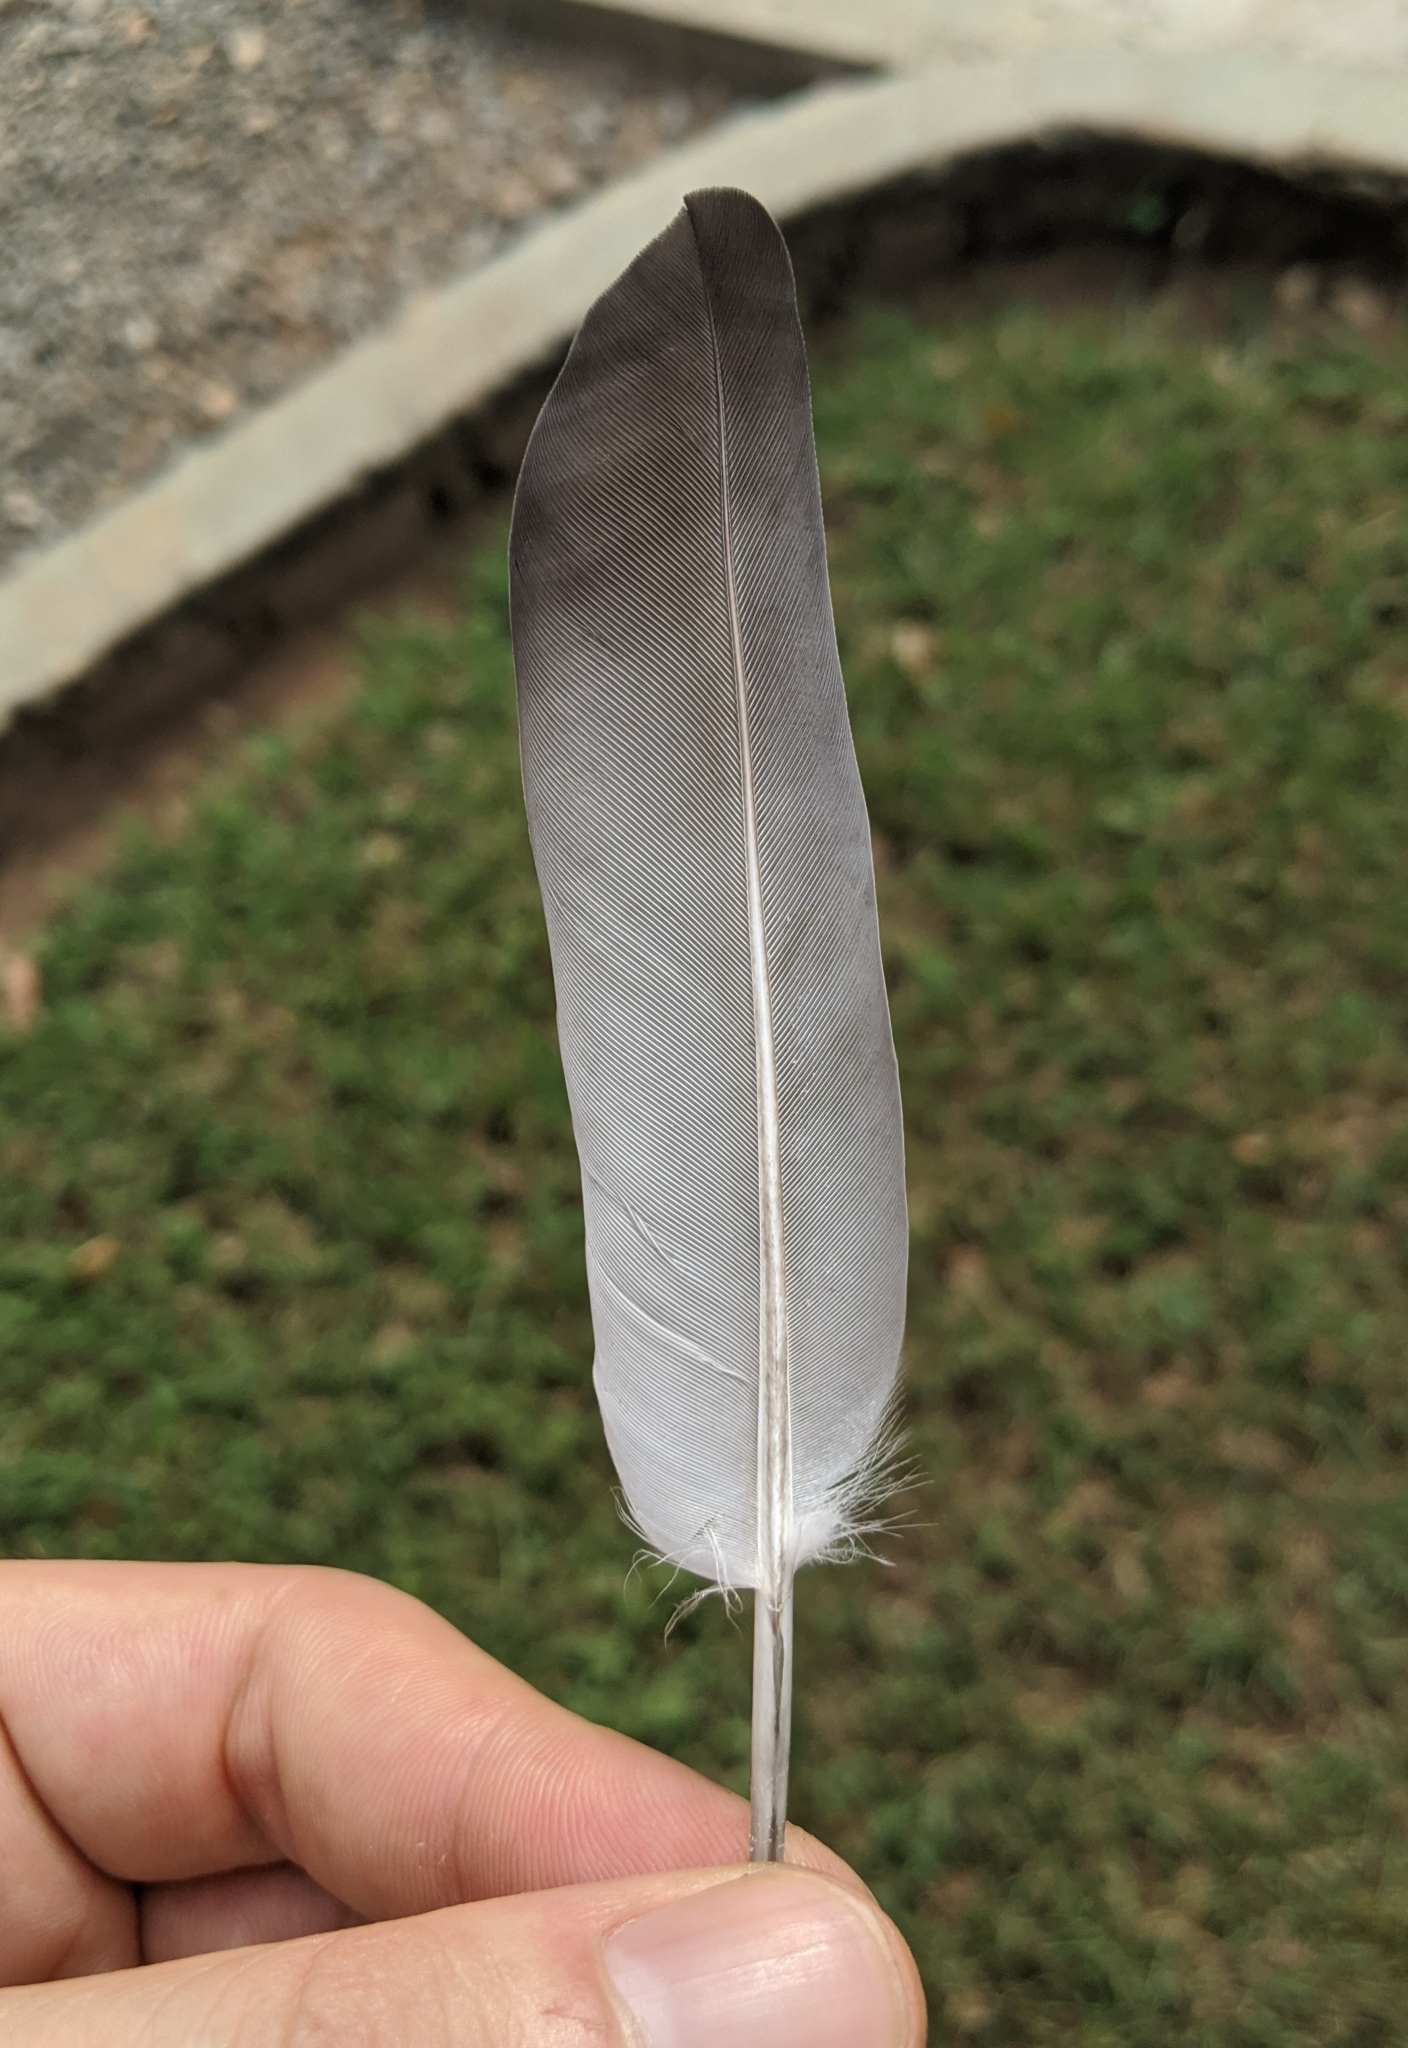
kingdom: Animalia
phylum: Chordata
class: Aves
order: Columbiformes
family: Columbidae
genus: Columba
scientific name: Columba livia
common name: Rock pigeon
